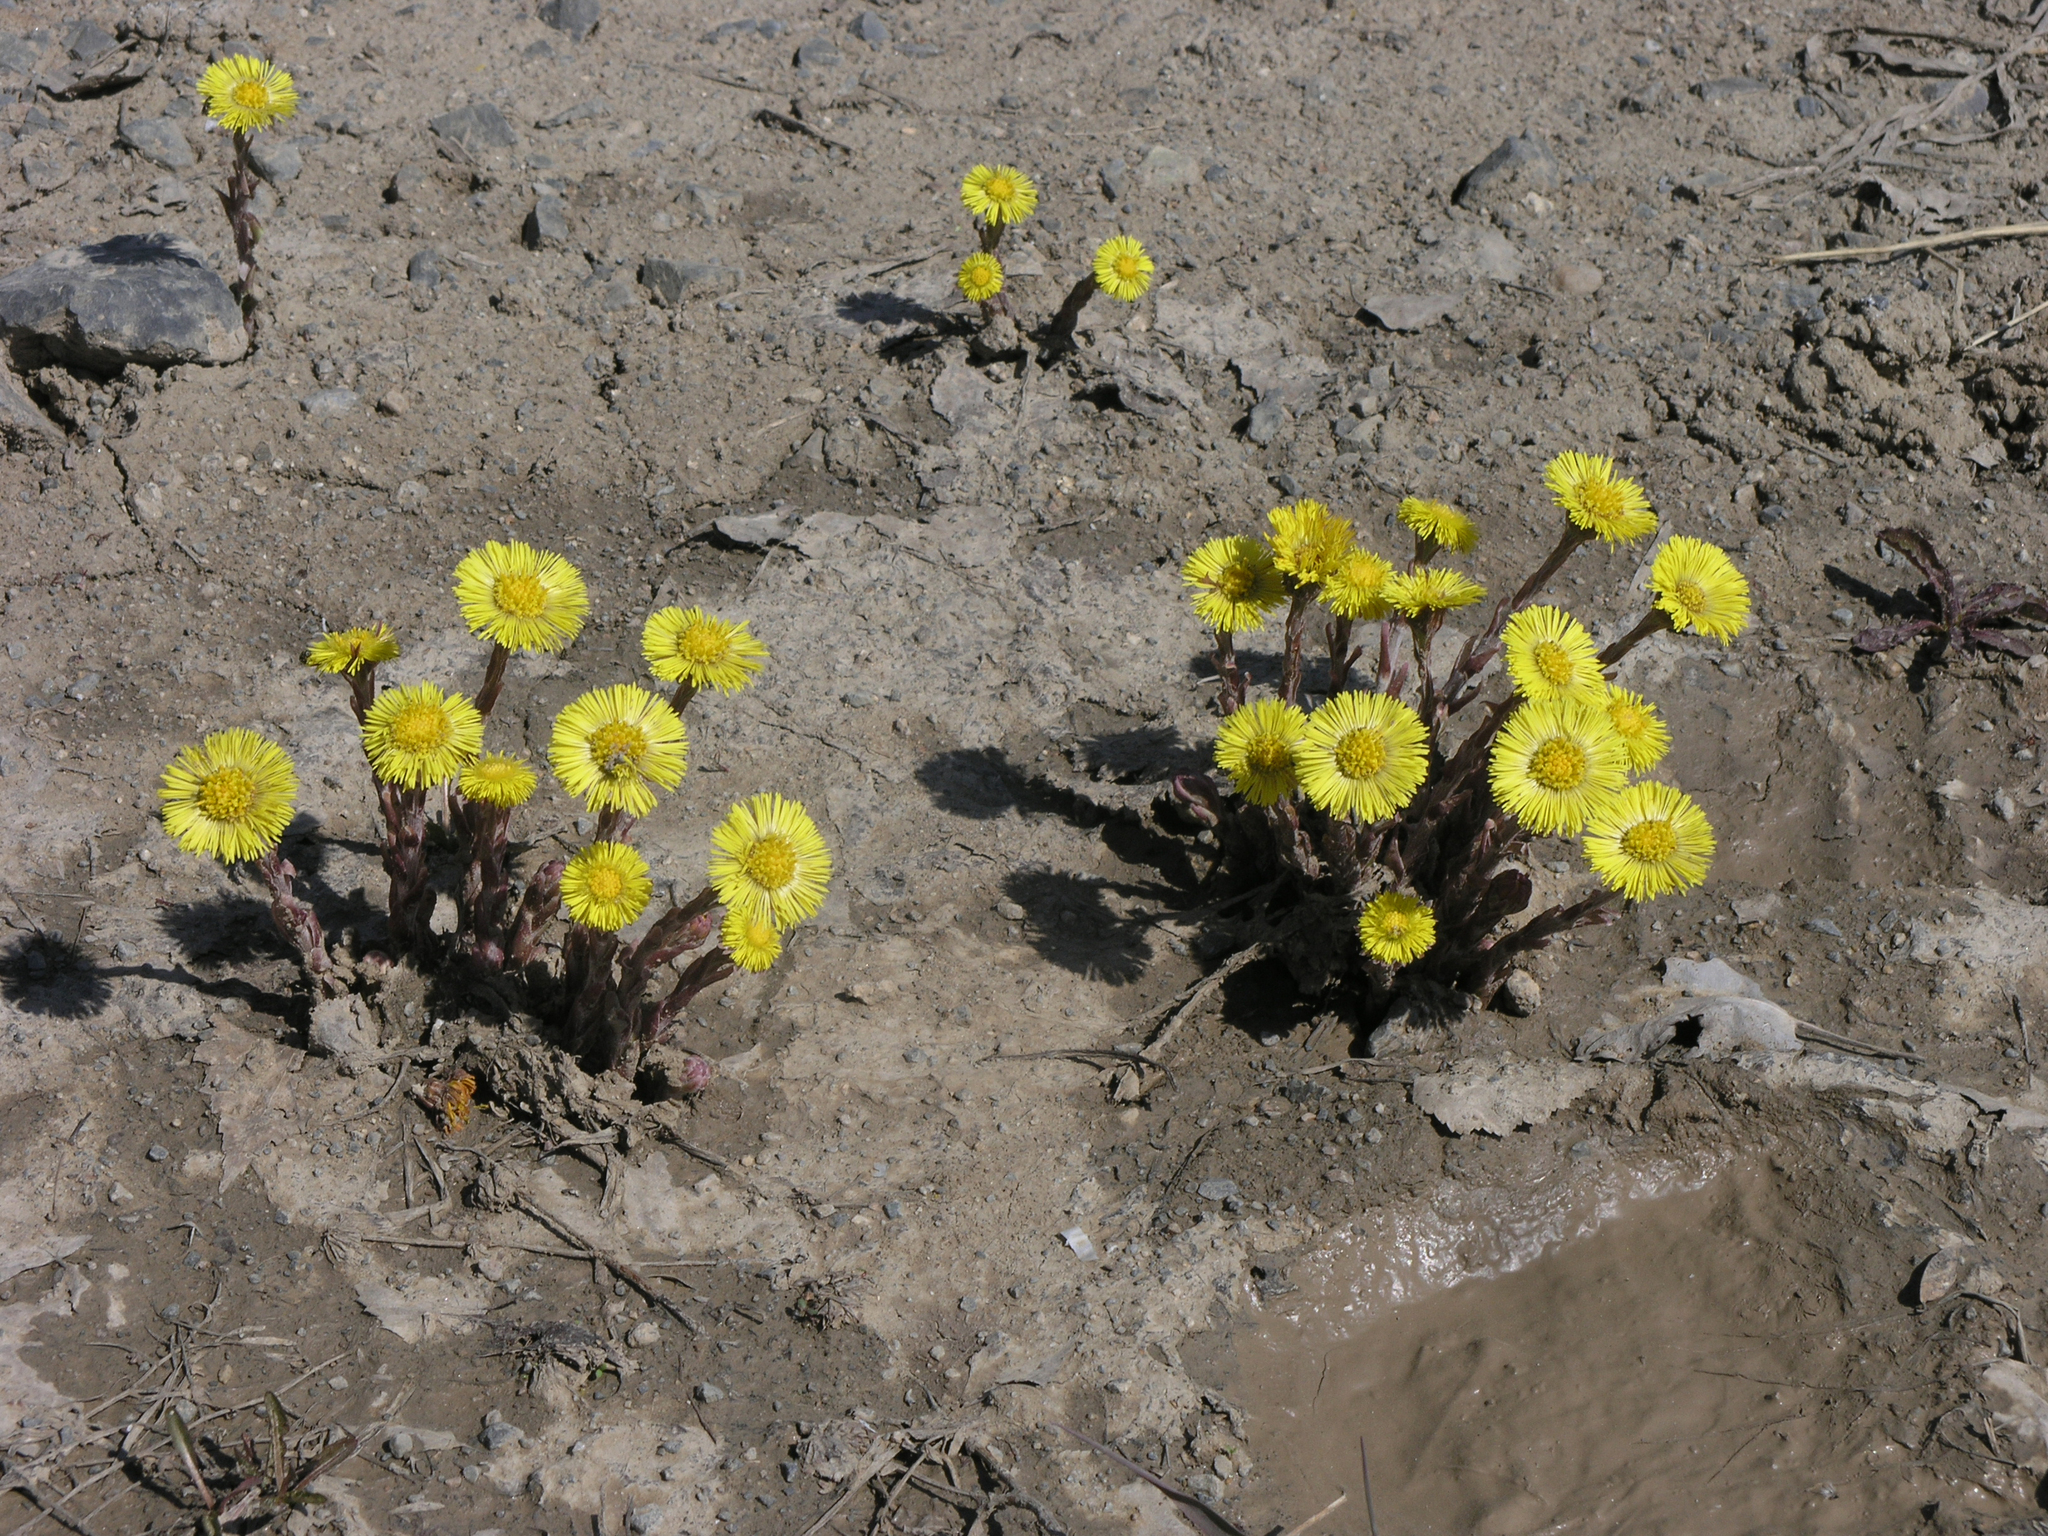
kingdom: Plantae
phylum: Tracheophyta
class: Magnoliopsida
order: Asterales
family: Asteraceae
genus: Tussilago
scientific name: Tussilago farfara
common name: Coltsfoot
